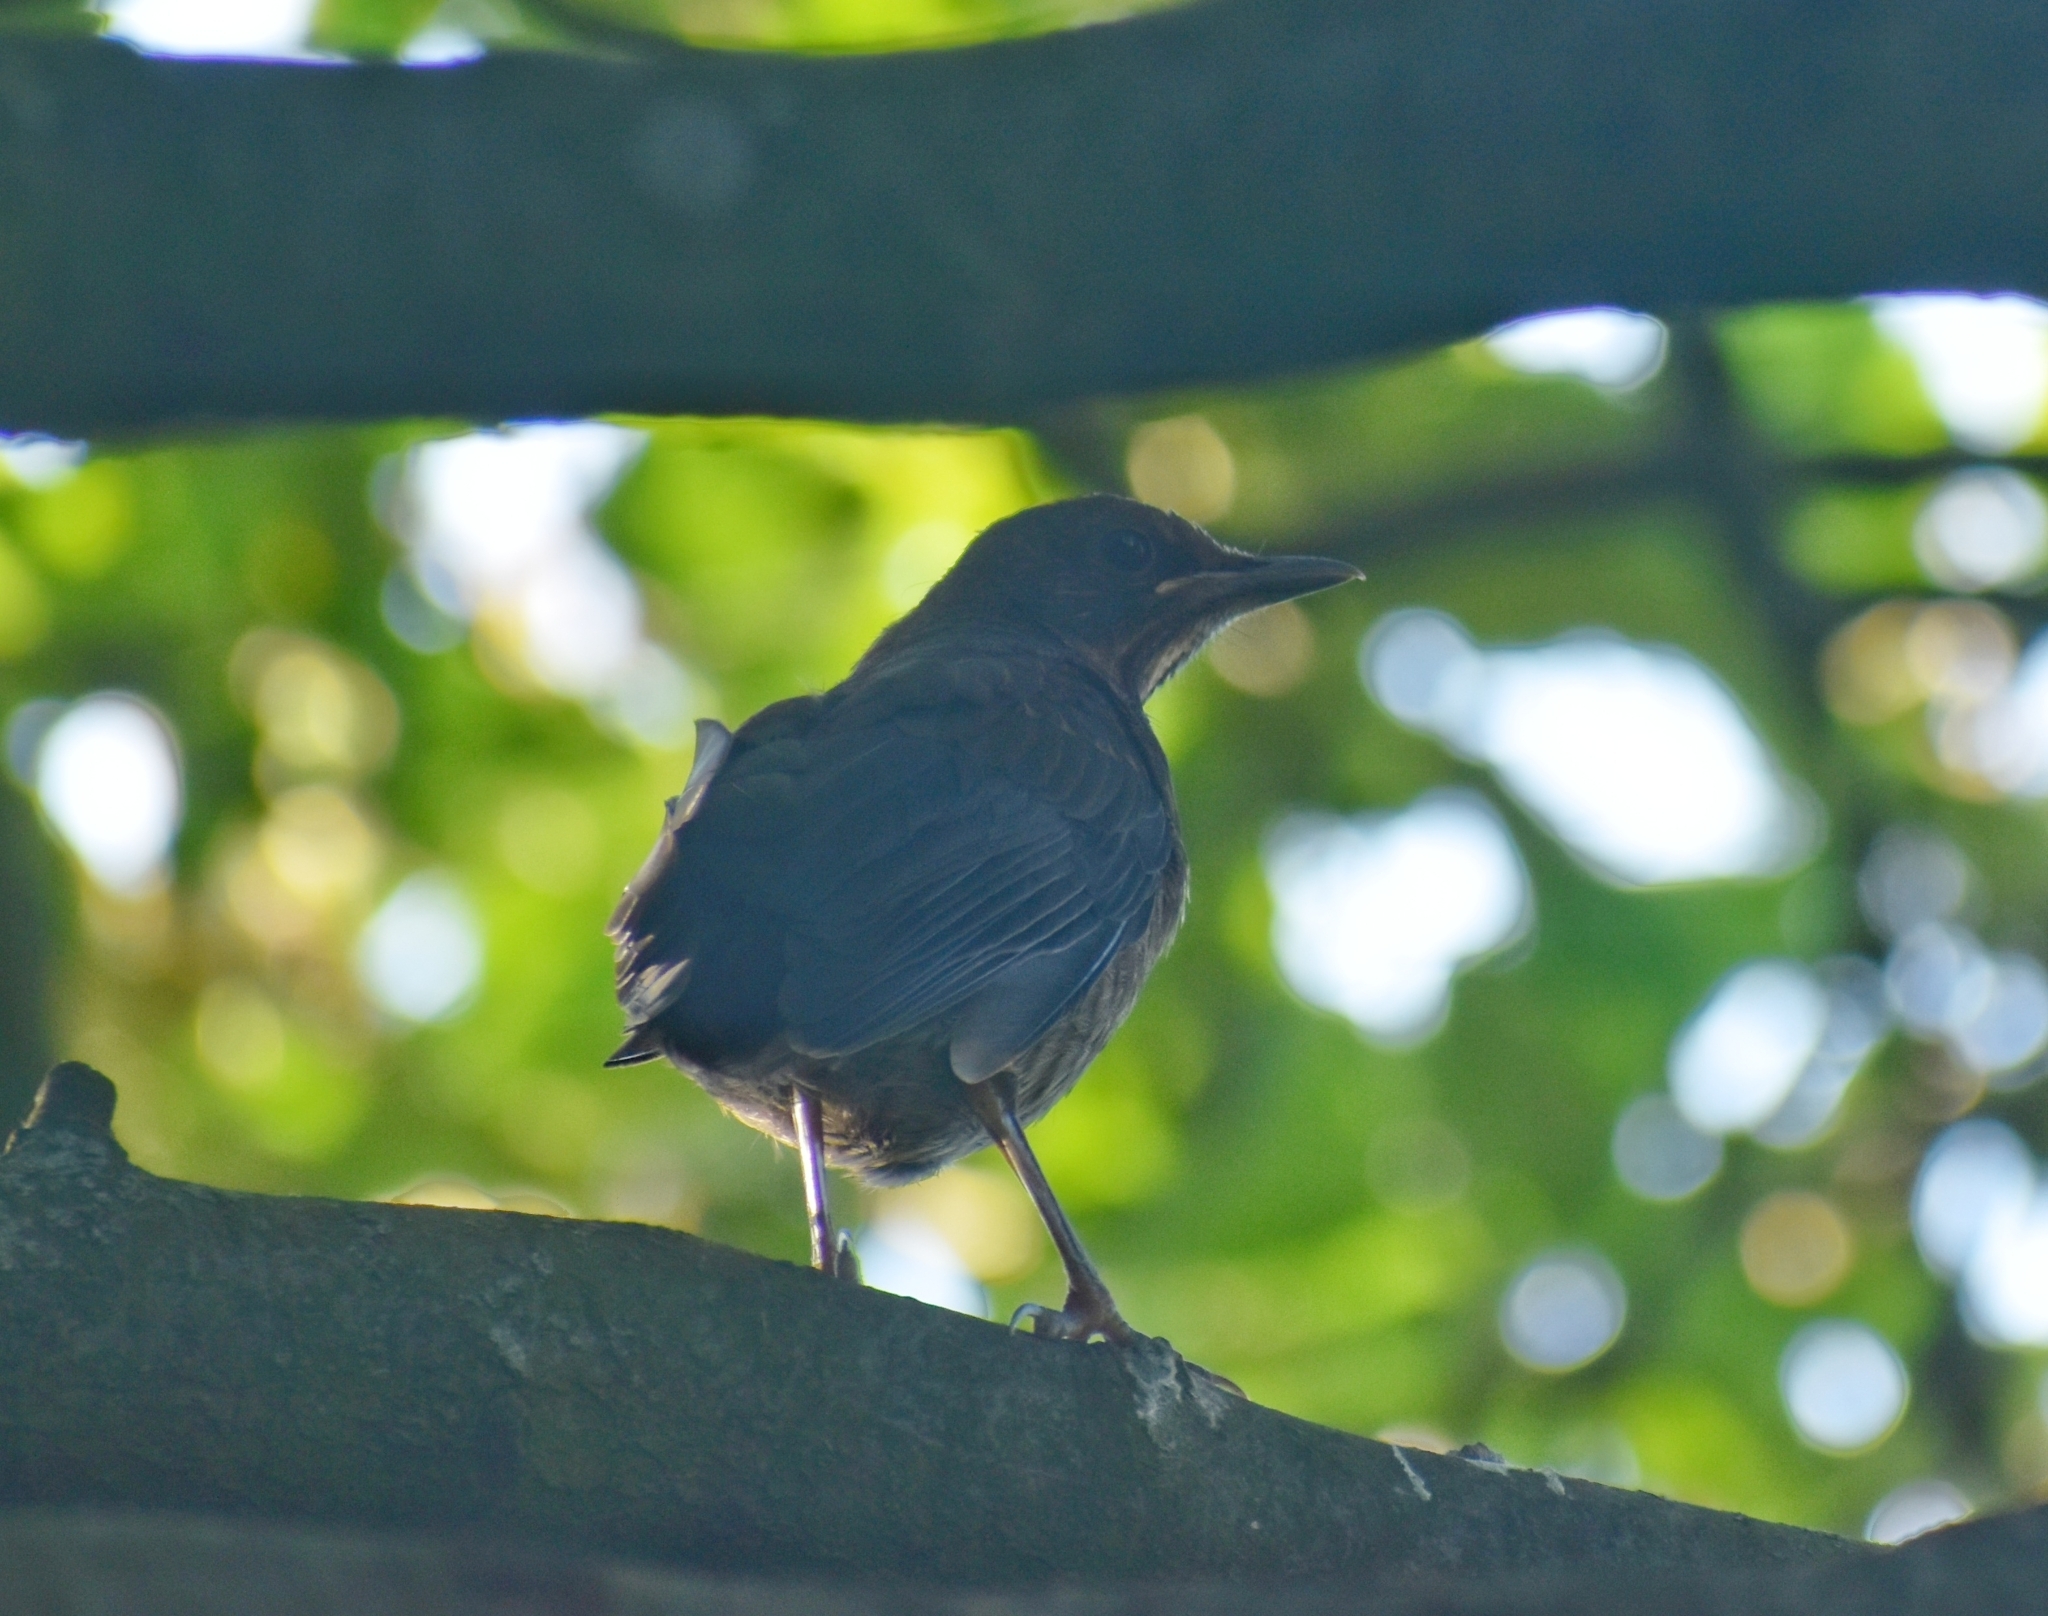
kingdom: Animalia
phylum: Chordata
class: Aves
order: Passeriformes
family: Turdidae
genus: Turdus
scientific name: Turdus merula
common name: Common blackbird
